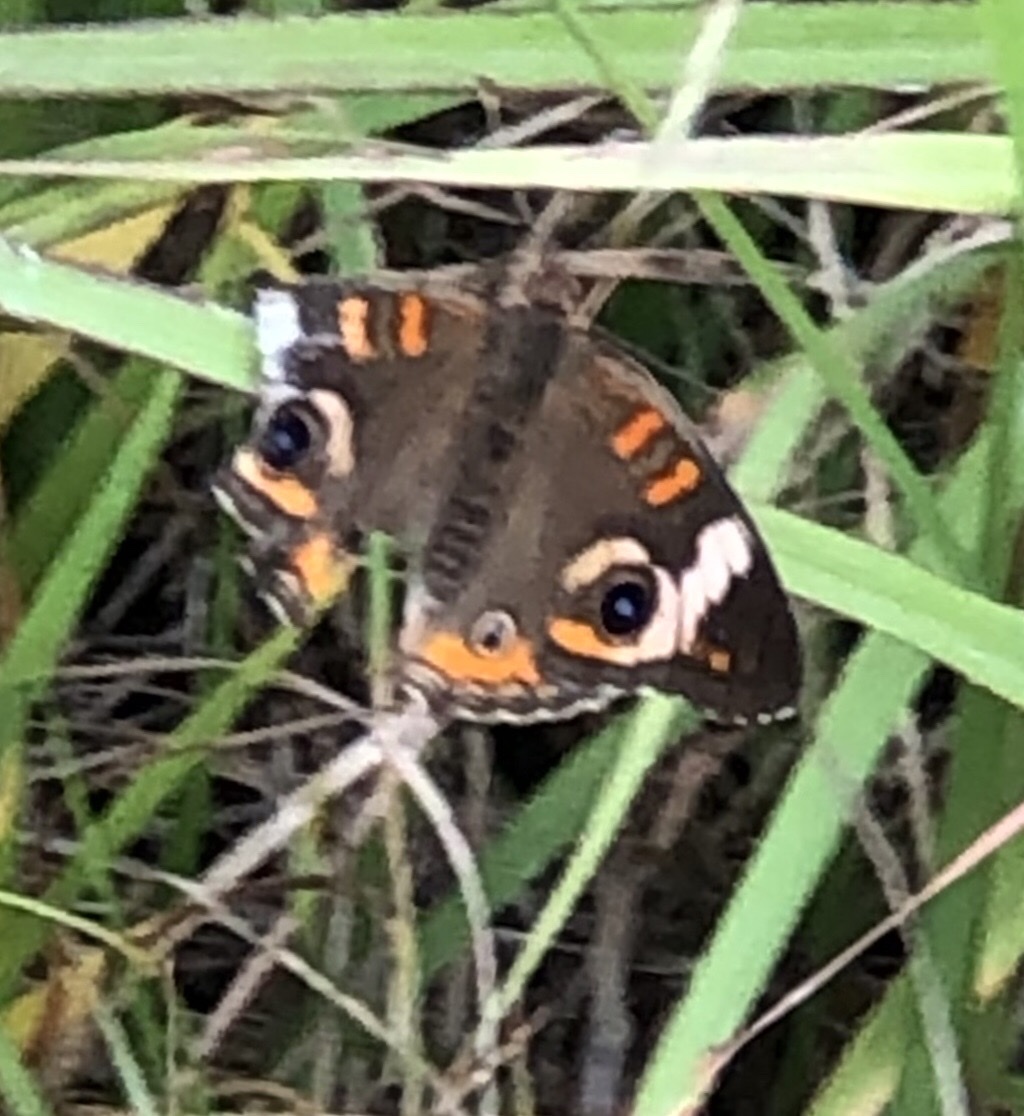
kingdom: Animalia
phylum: Arthropoda
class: Insecta
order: Lepidoptera
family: Nymphalidae
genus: Junonia
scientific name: Junonia coenia
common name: Common buckeye
